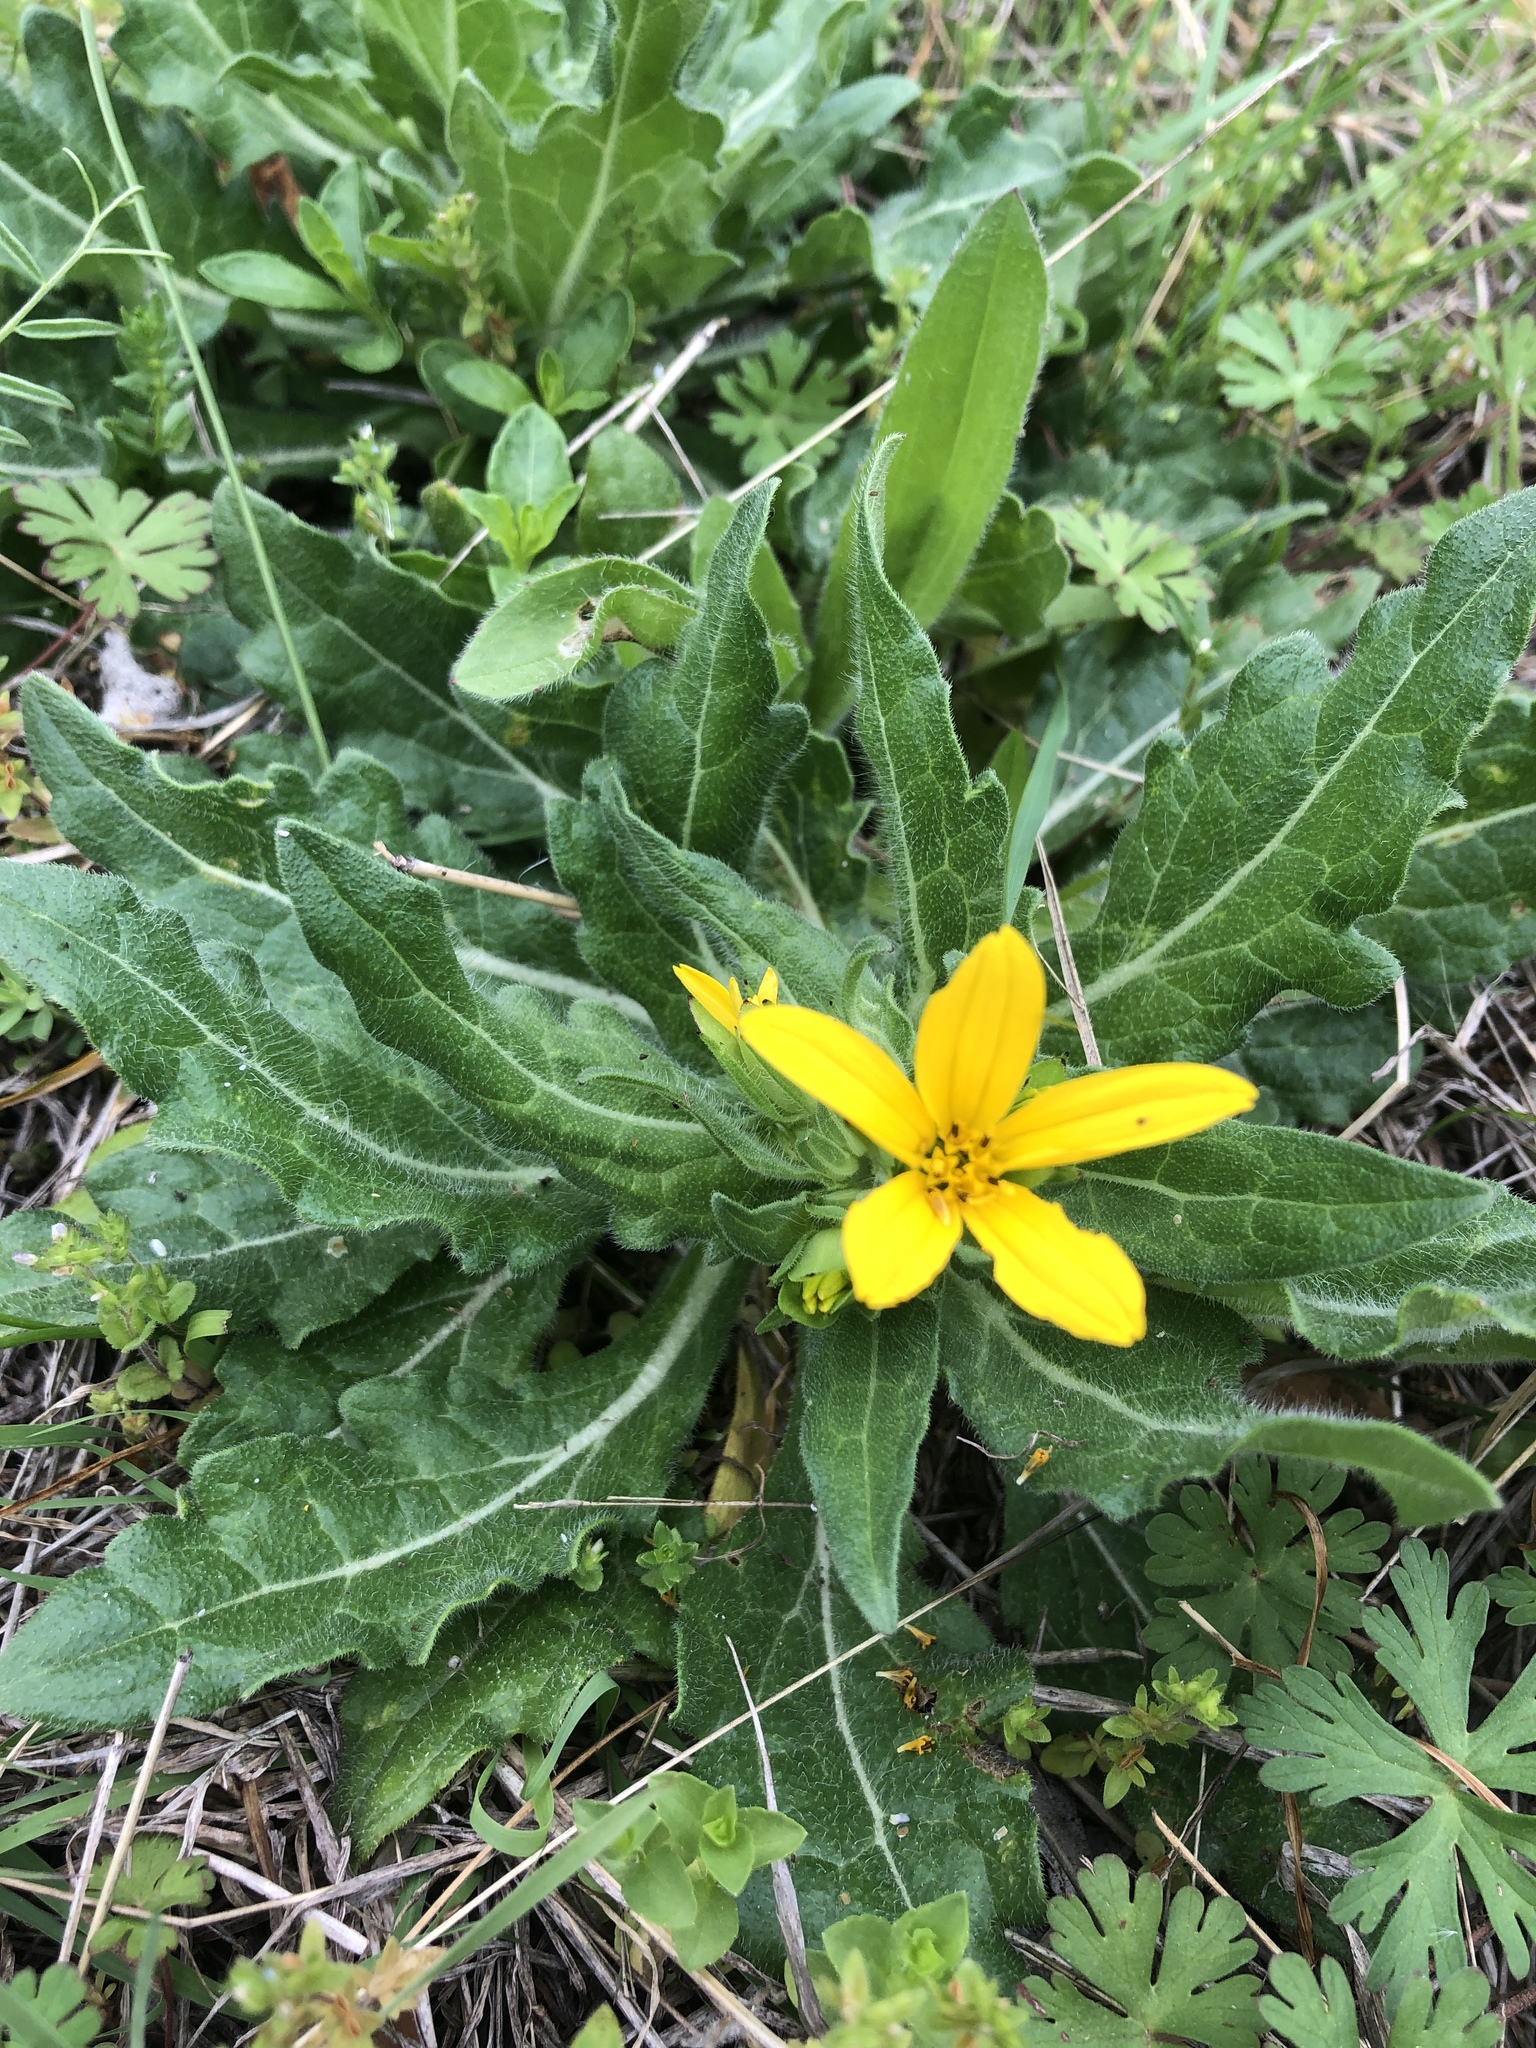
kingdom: Plantae
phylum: Tracheophyta
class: Magnoliopsida
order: Asterales
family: Asteraceae
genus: Lindheimera
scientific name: Lindheimera texana
